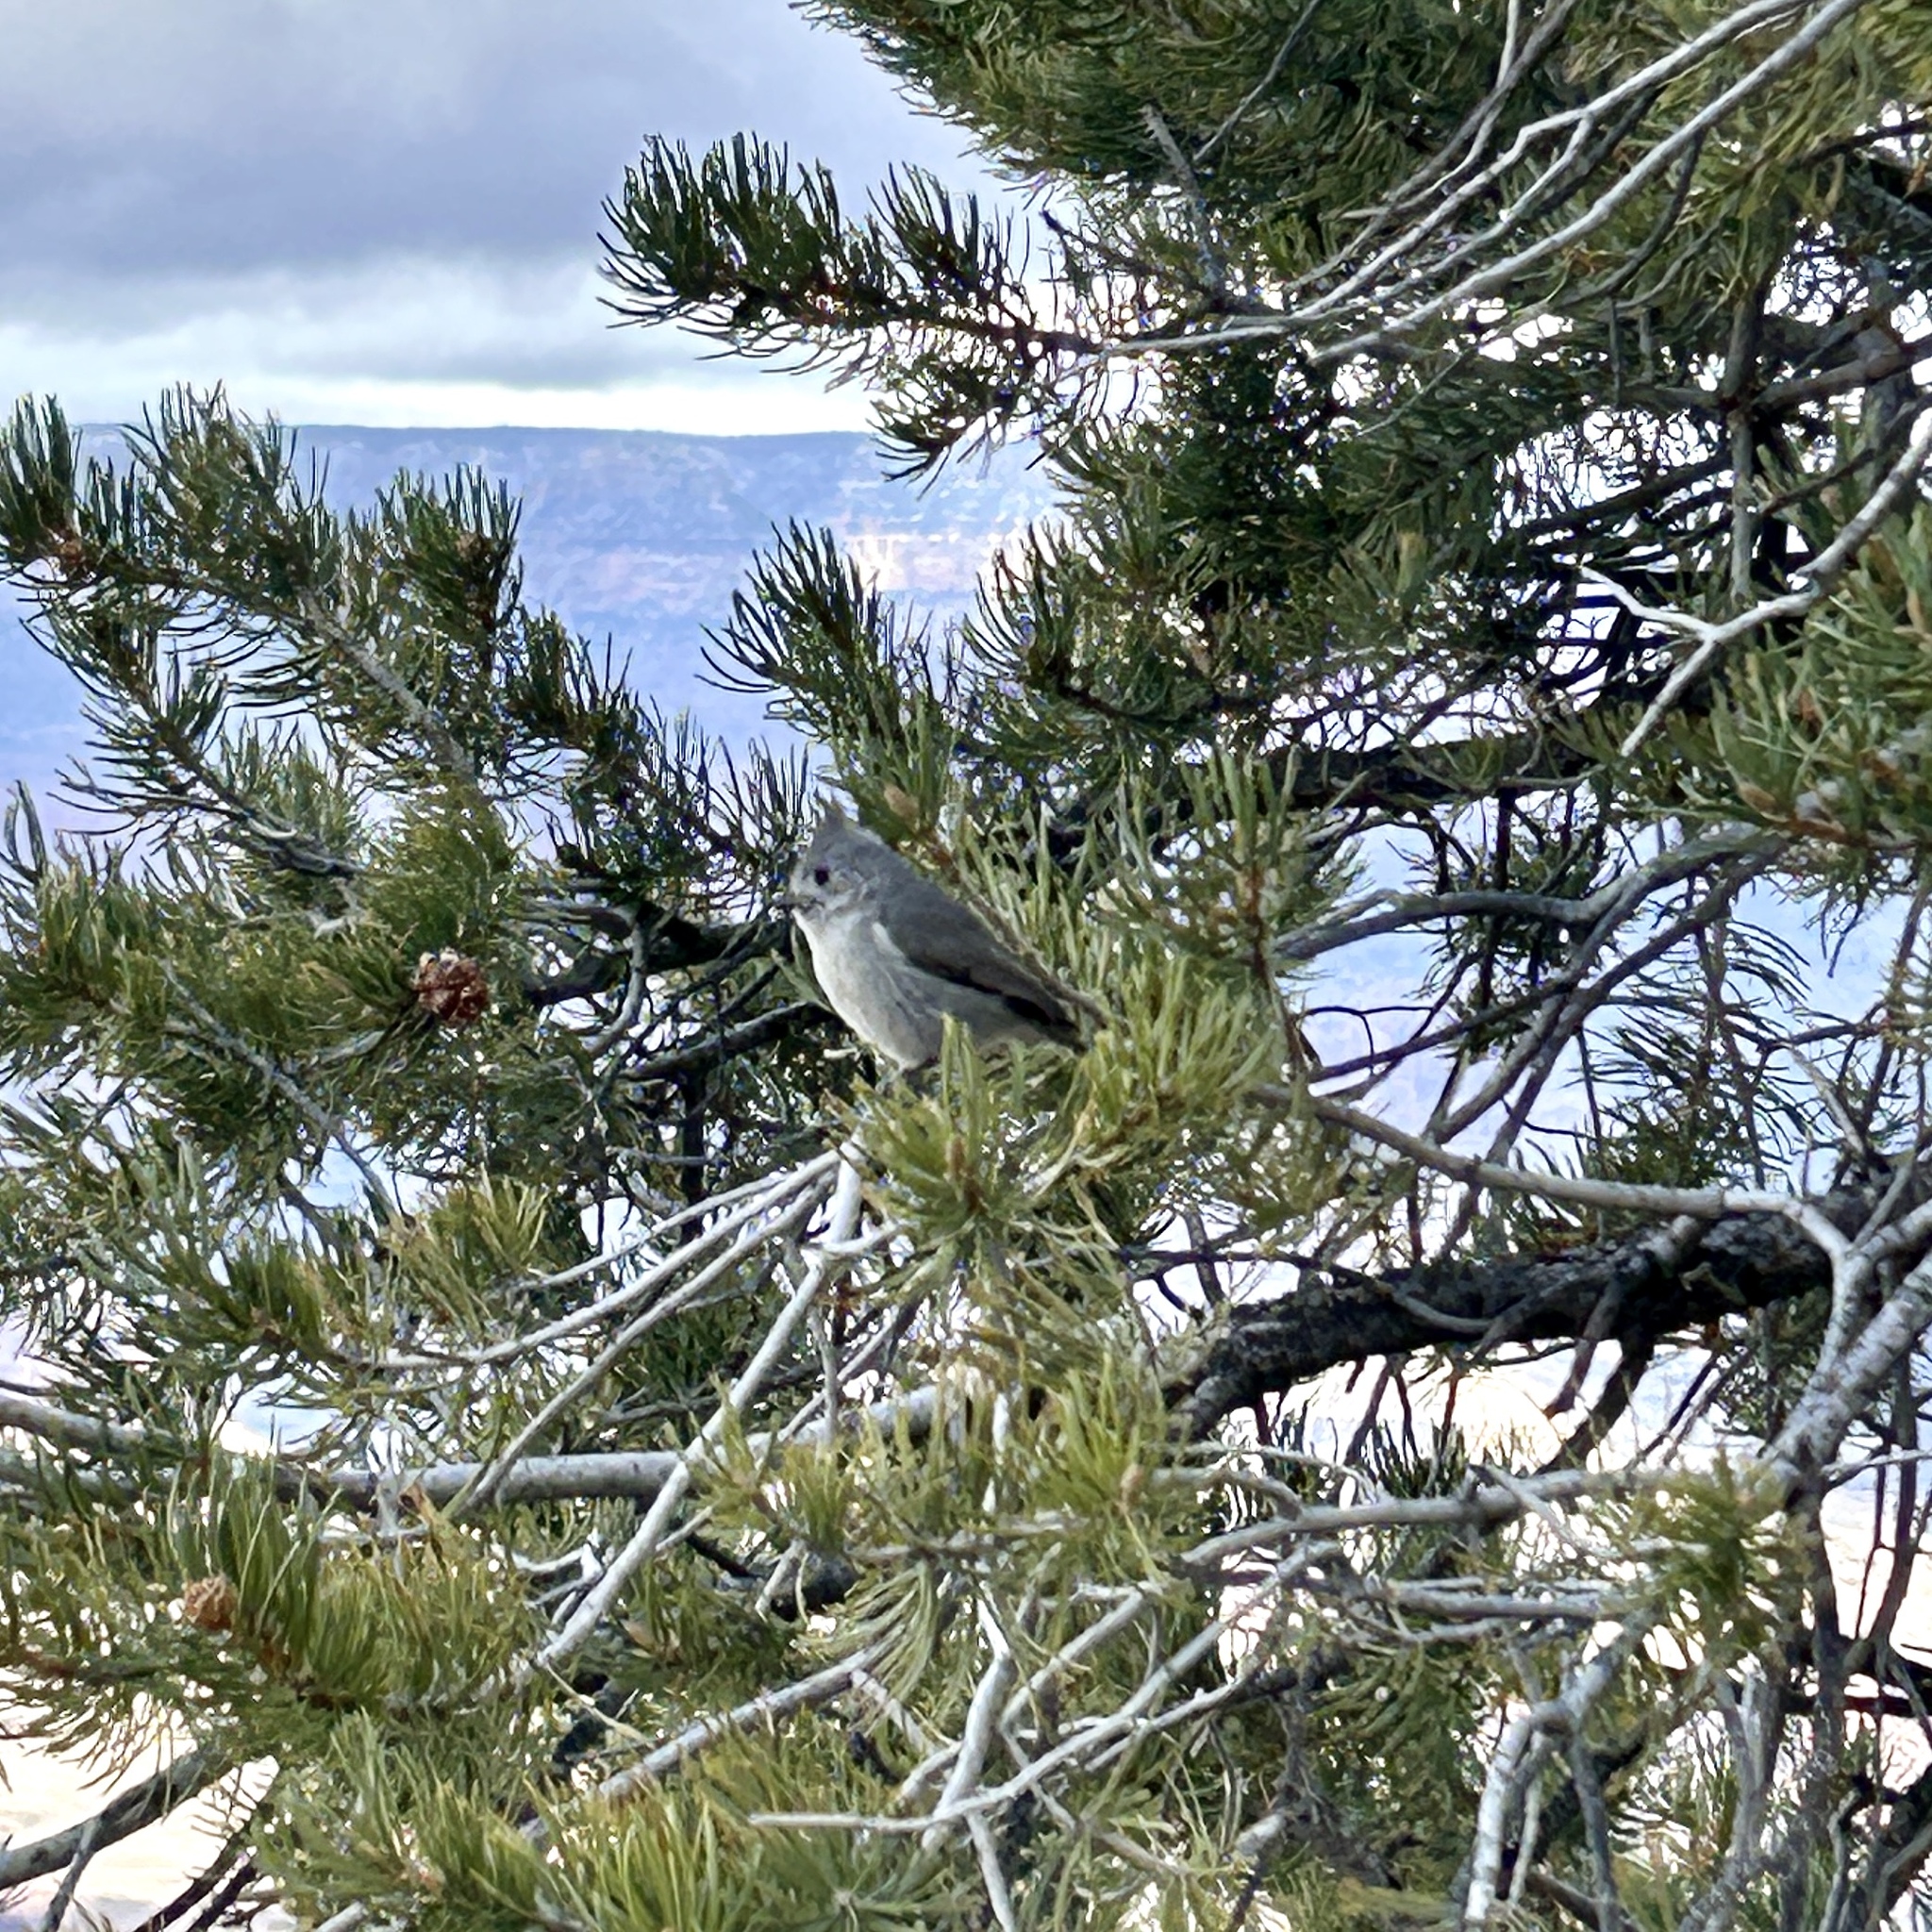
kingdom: Animalia
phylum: Chordata
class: Aves
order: Passeriformes
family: Paridae
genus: Baeolophus
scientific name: Baeolophus ridgwayi
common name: Juniper titmouse
